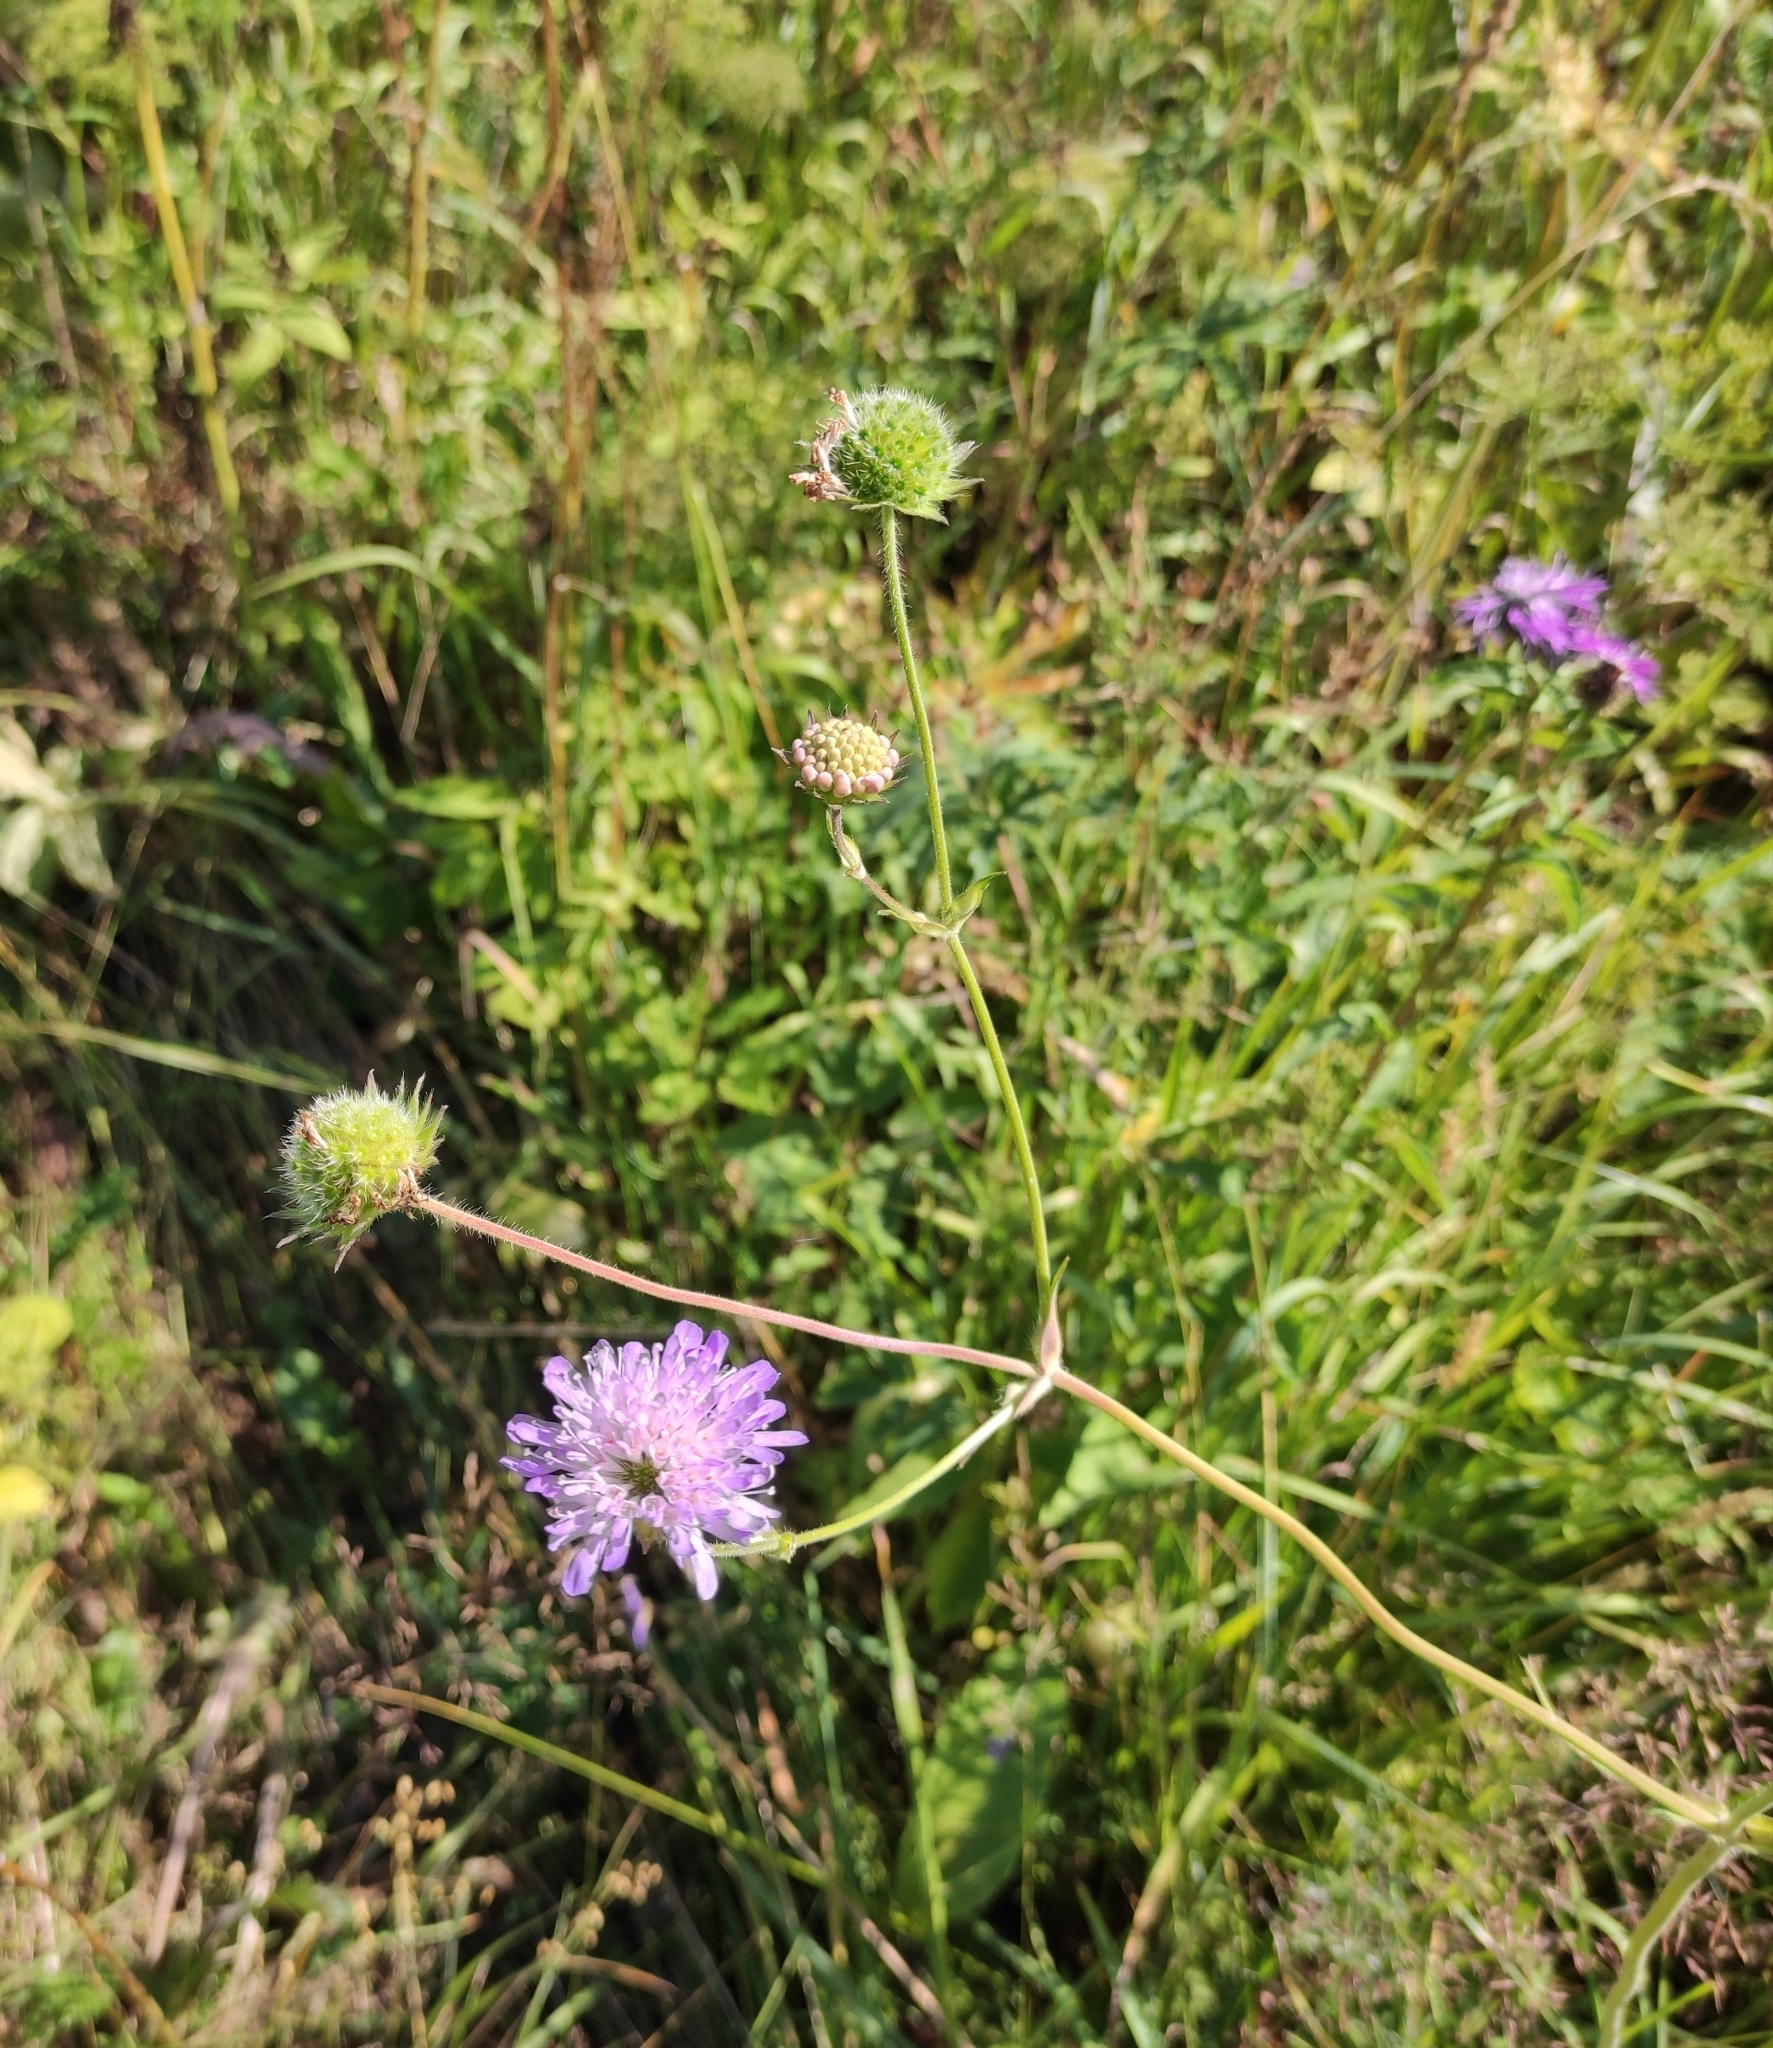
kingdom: Plantae
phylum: Tracheophyta
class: Magnoliopsida
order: Dipsacales
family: Caprifoliaceae
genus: Knautia
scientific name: Knautia arvensis
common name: Field scabiosa
